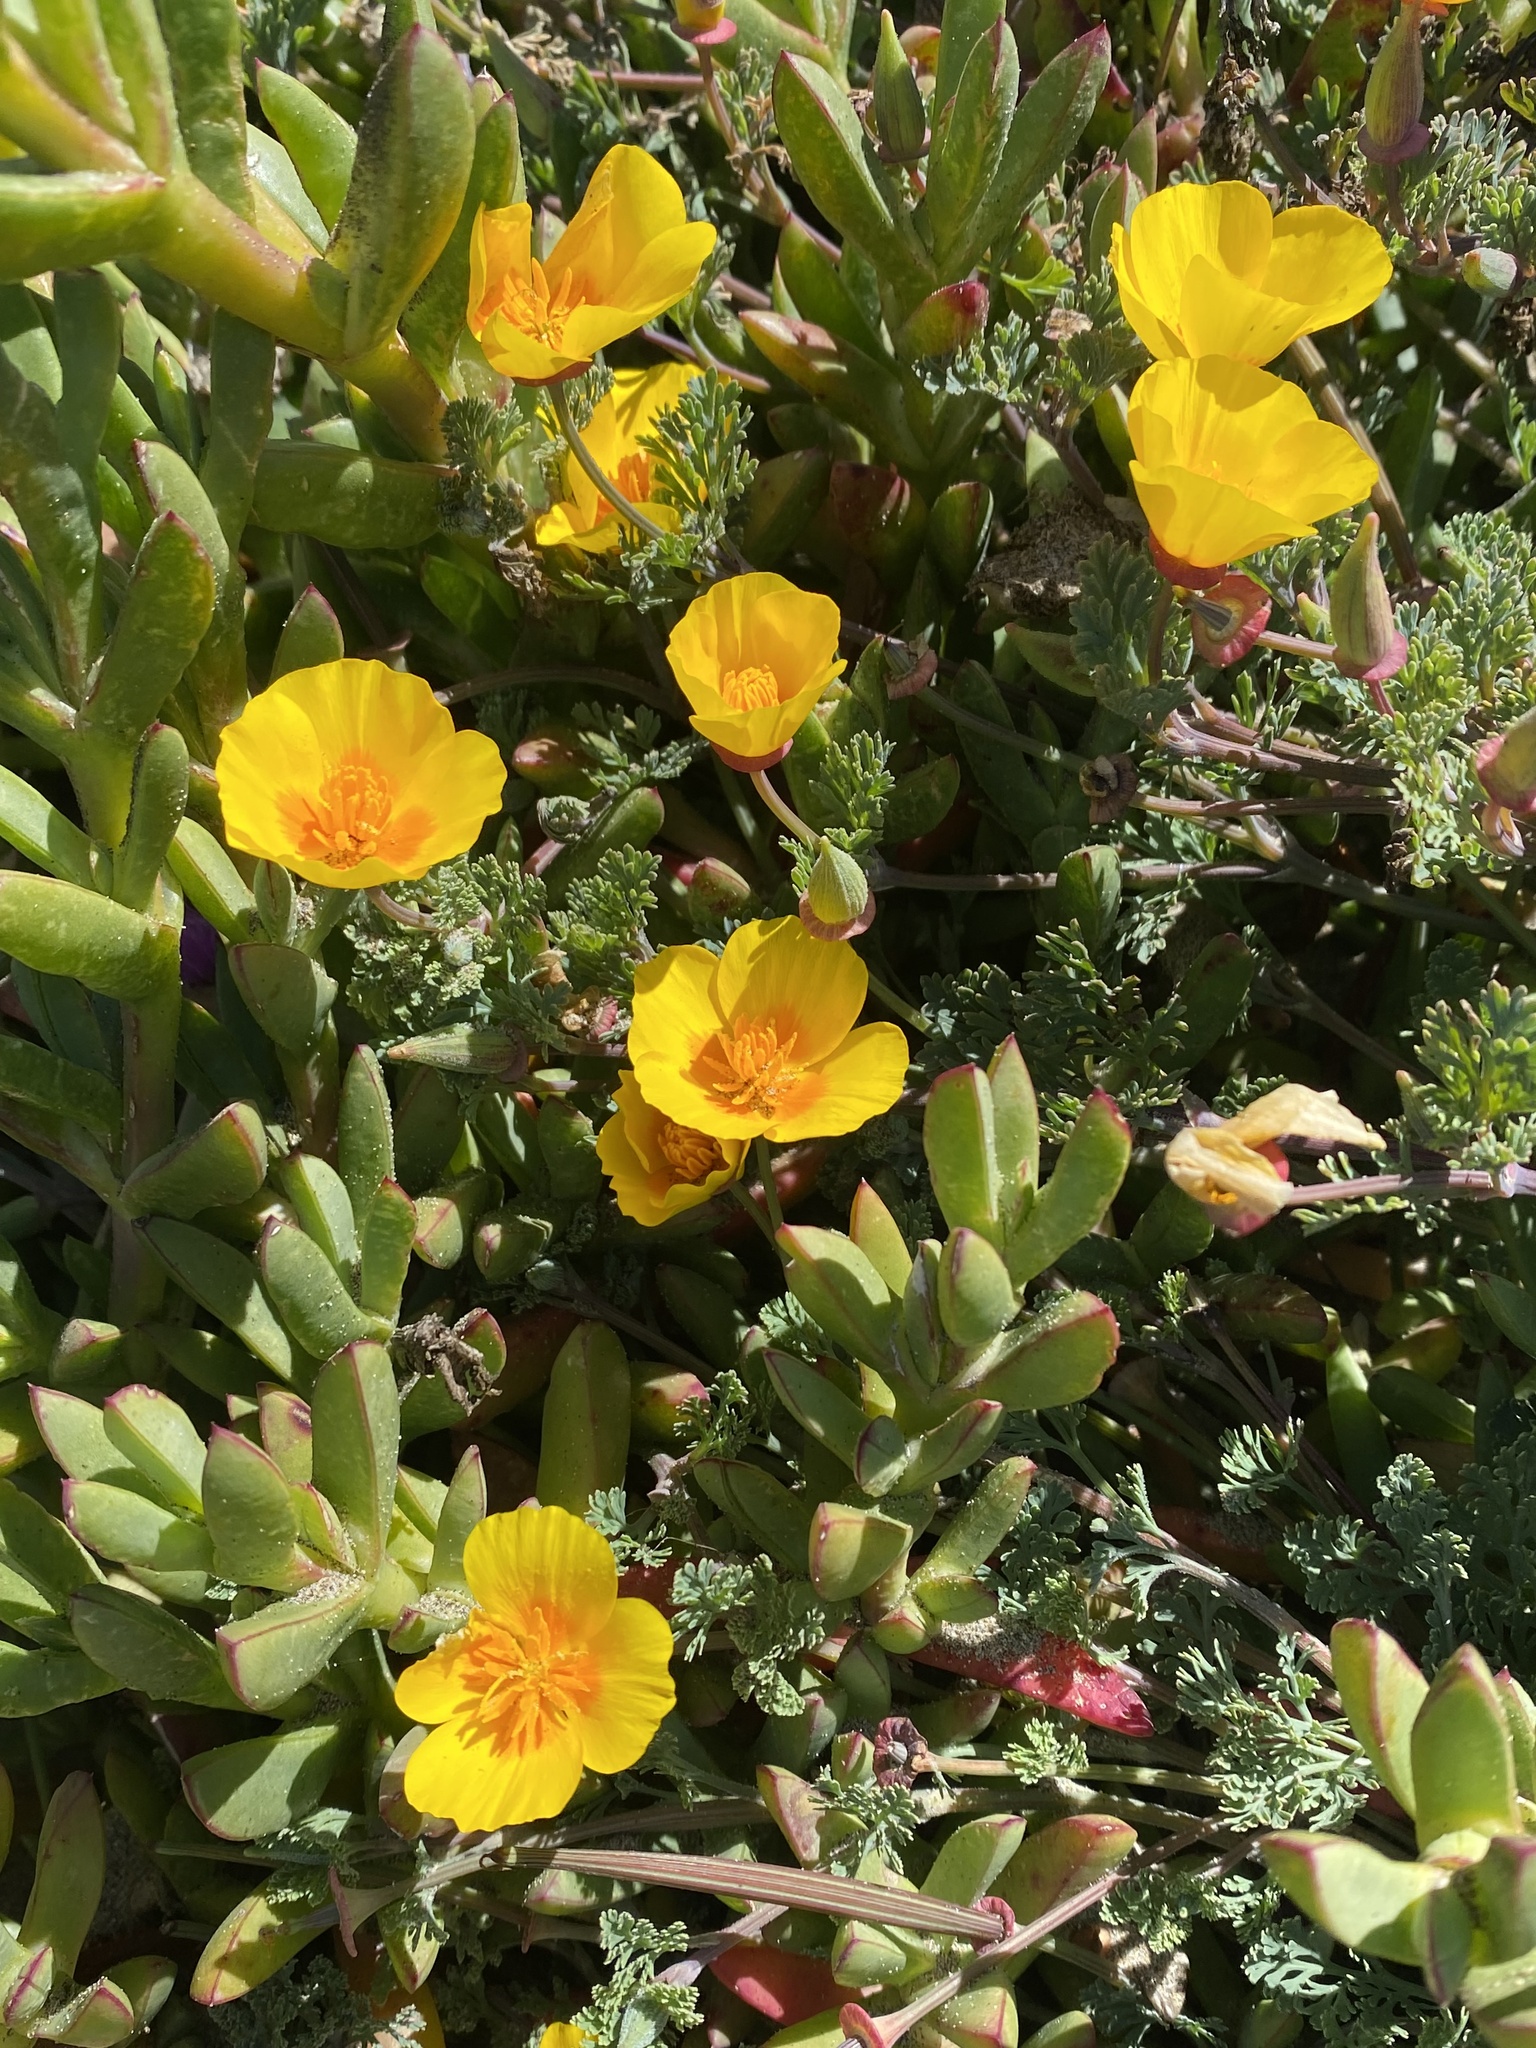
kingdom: Plantae
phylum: Tracheophyta
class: Magnoliopsida
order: Ranunculales
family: Papaveraceae
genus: Eschscholzia
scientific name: Eschscholzia californica
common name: California poppy
